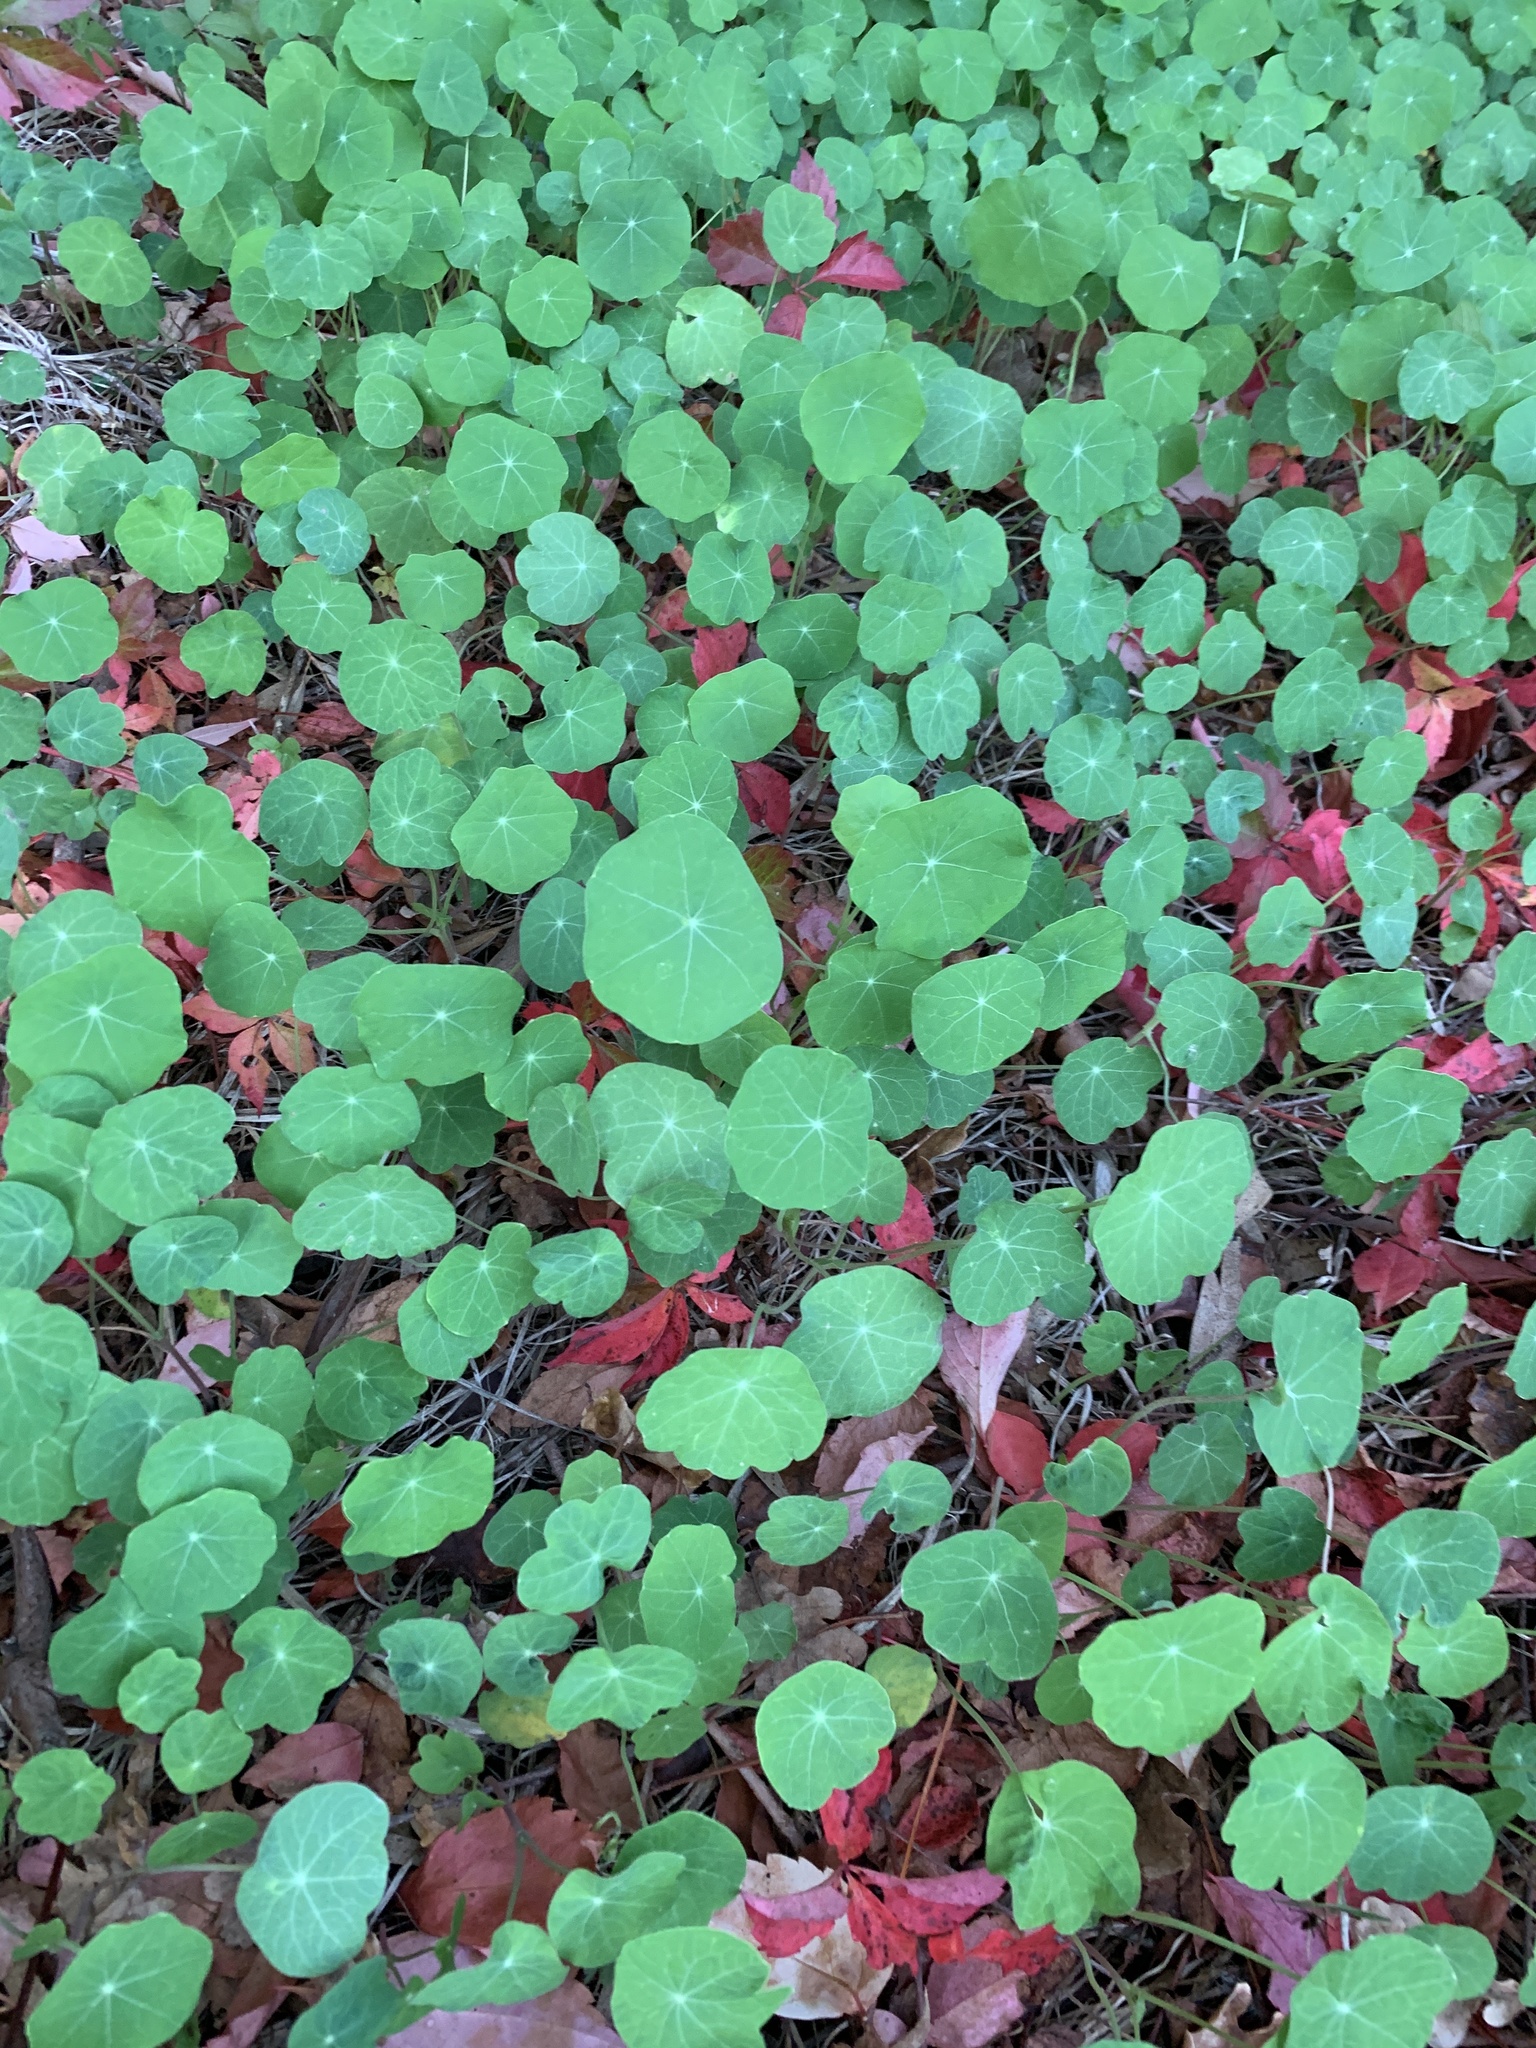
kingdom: Plantae
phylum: Tracheophyta
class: Magnoliopsida
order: Brassicales
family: Tropaeolaceae
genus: Tropaeolum
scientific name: Tropaeolum majus
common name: Nasturtium
